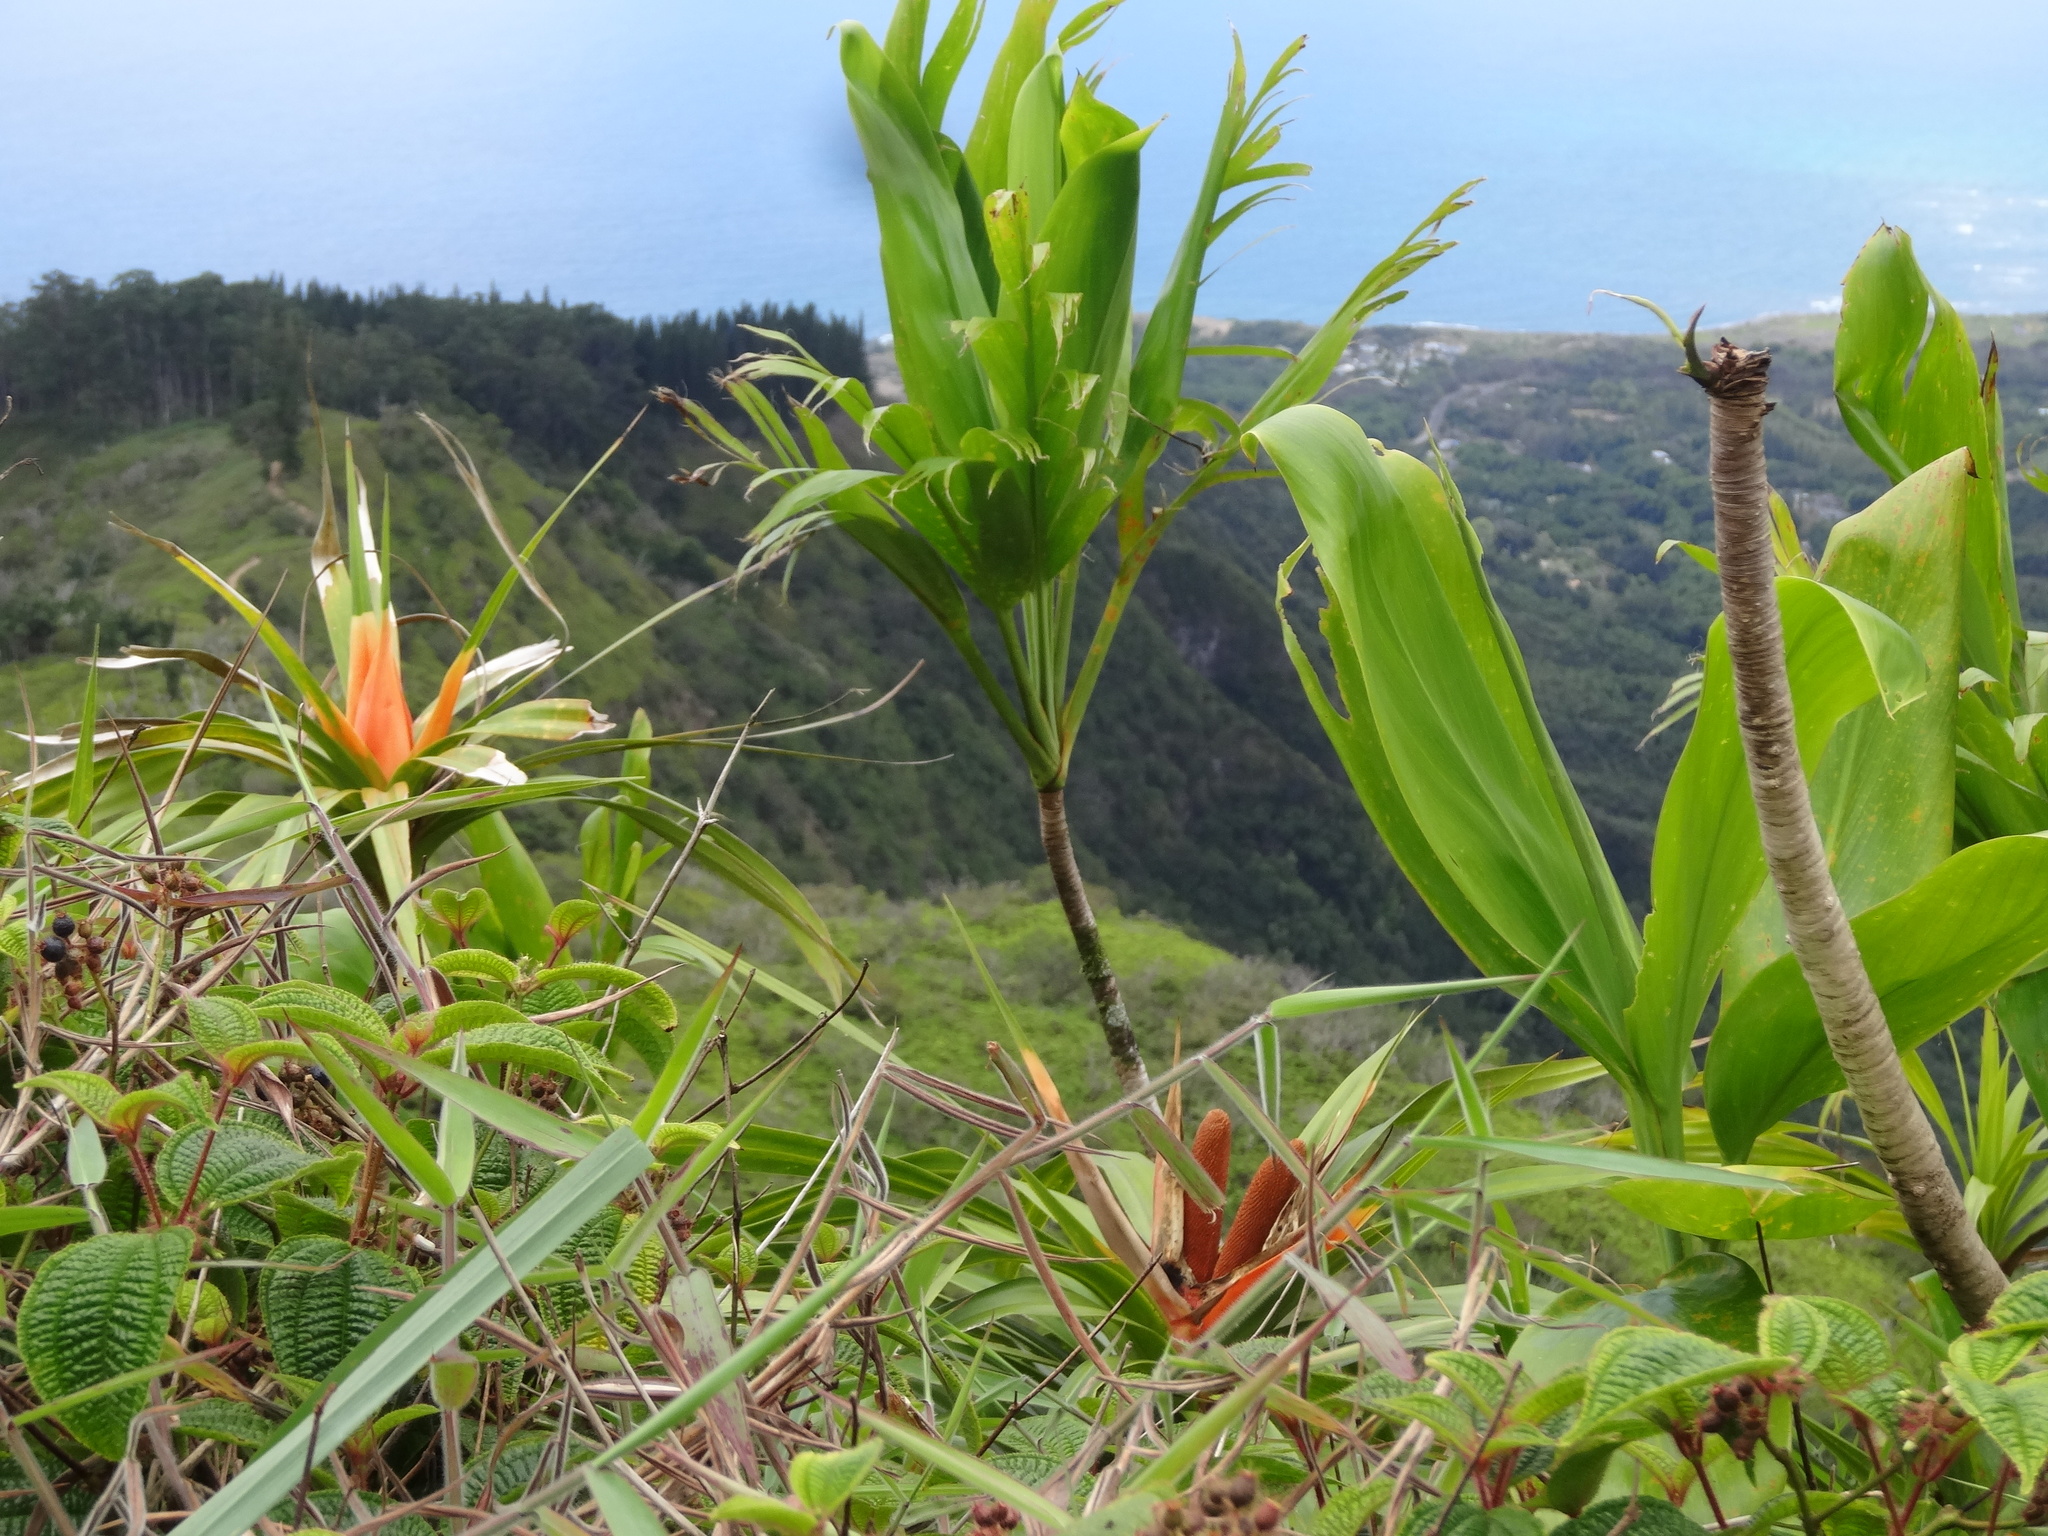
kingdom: Plantae
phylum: Tracheophyta
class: Liliopsida
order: Pandanales
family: Pandanaceae
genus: Freycinetia
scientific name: Freycinetia arborea
